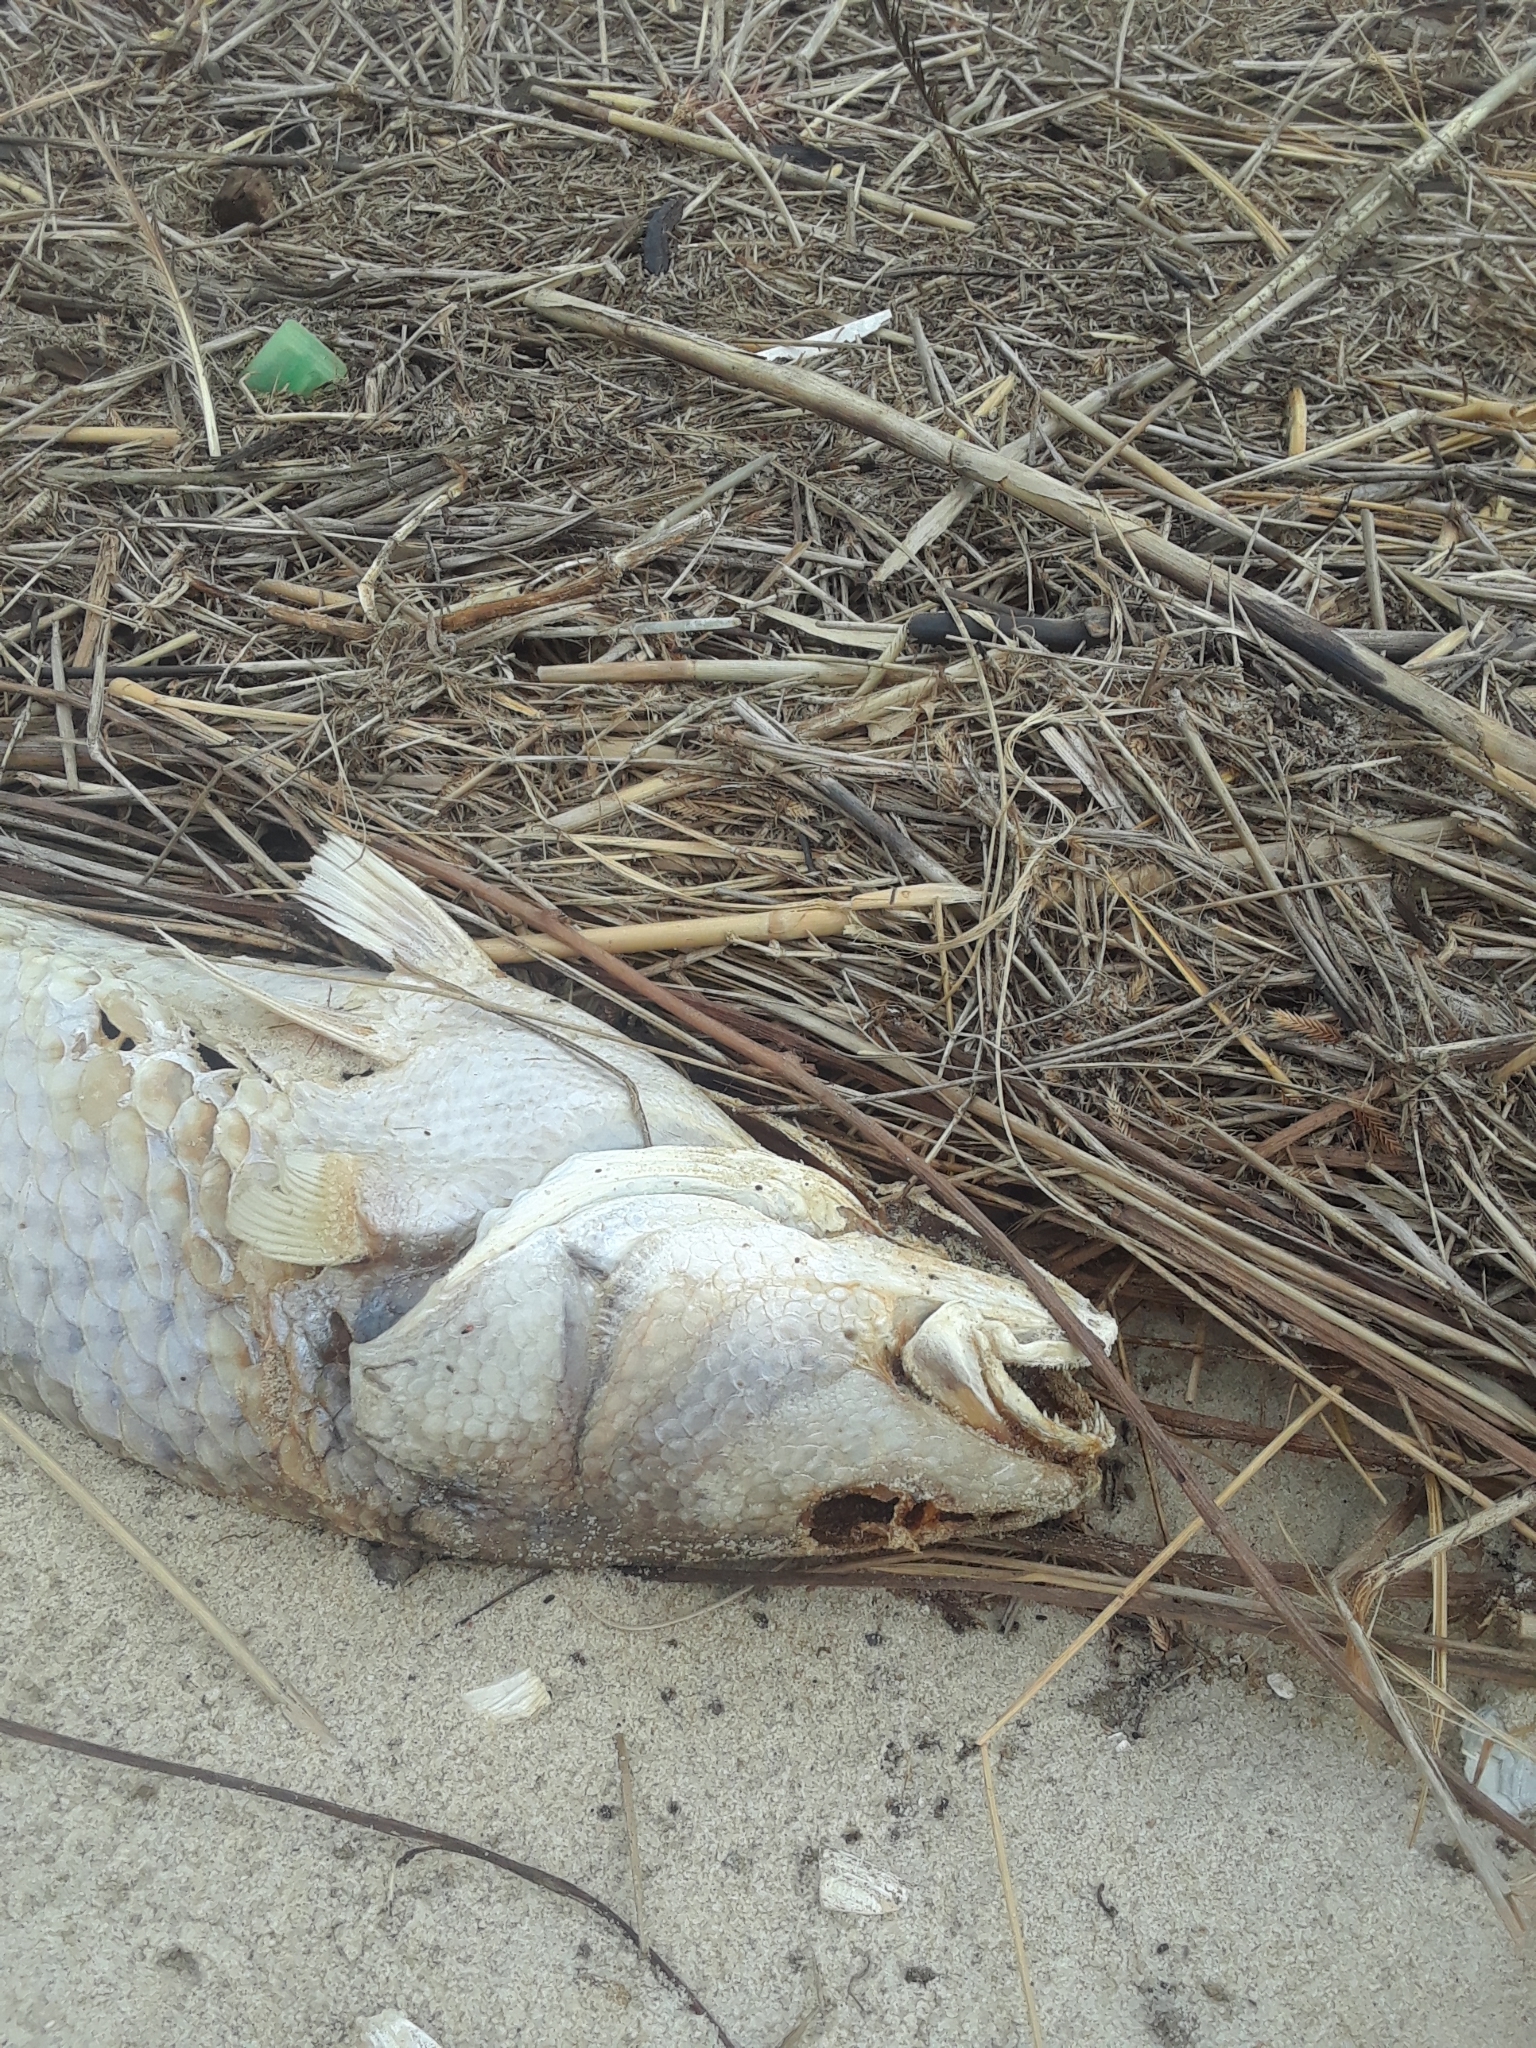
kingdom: Animalia
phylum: Chordata
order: Perciformes
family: Sciaenidae
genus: Sciaenops
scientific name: Sciaenops ocellatus
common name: Red drum
